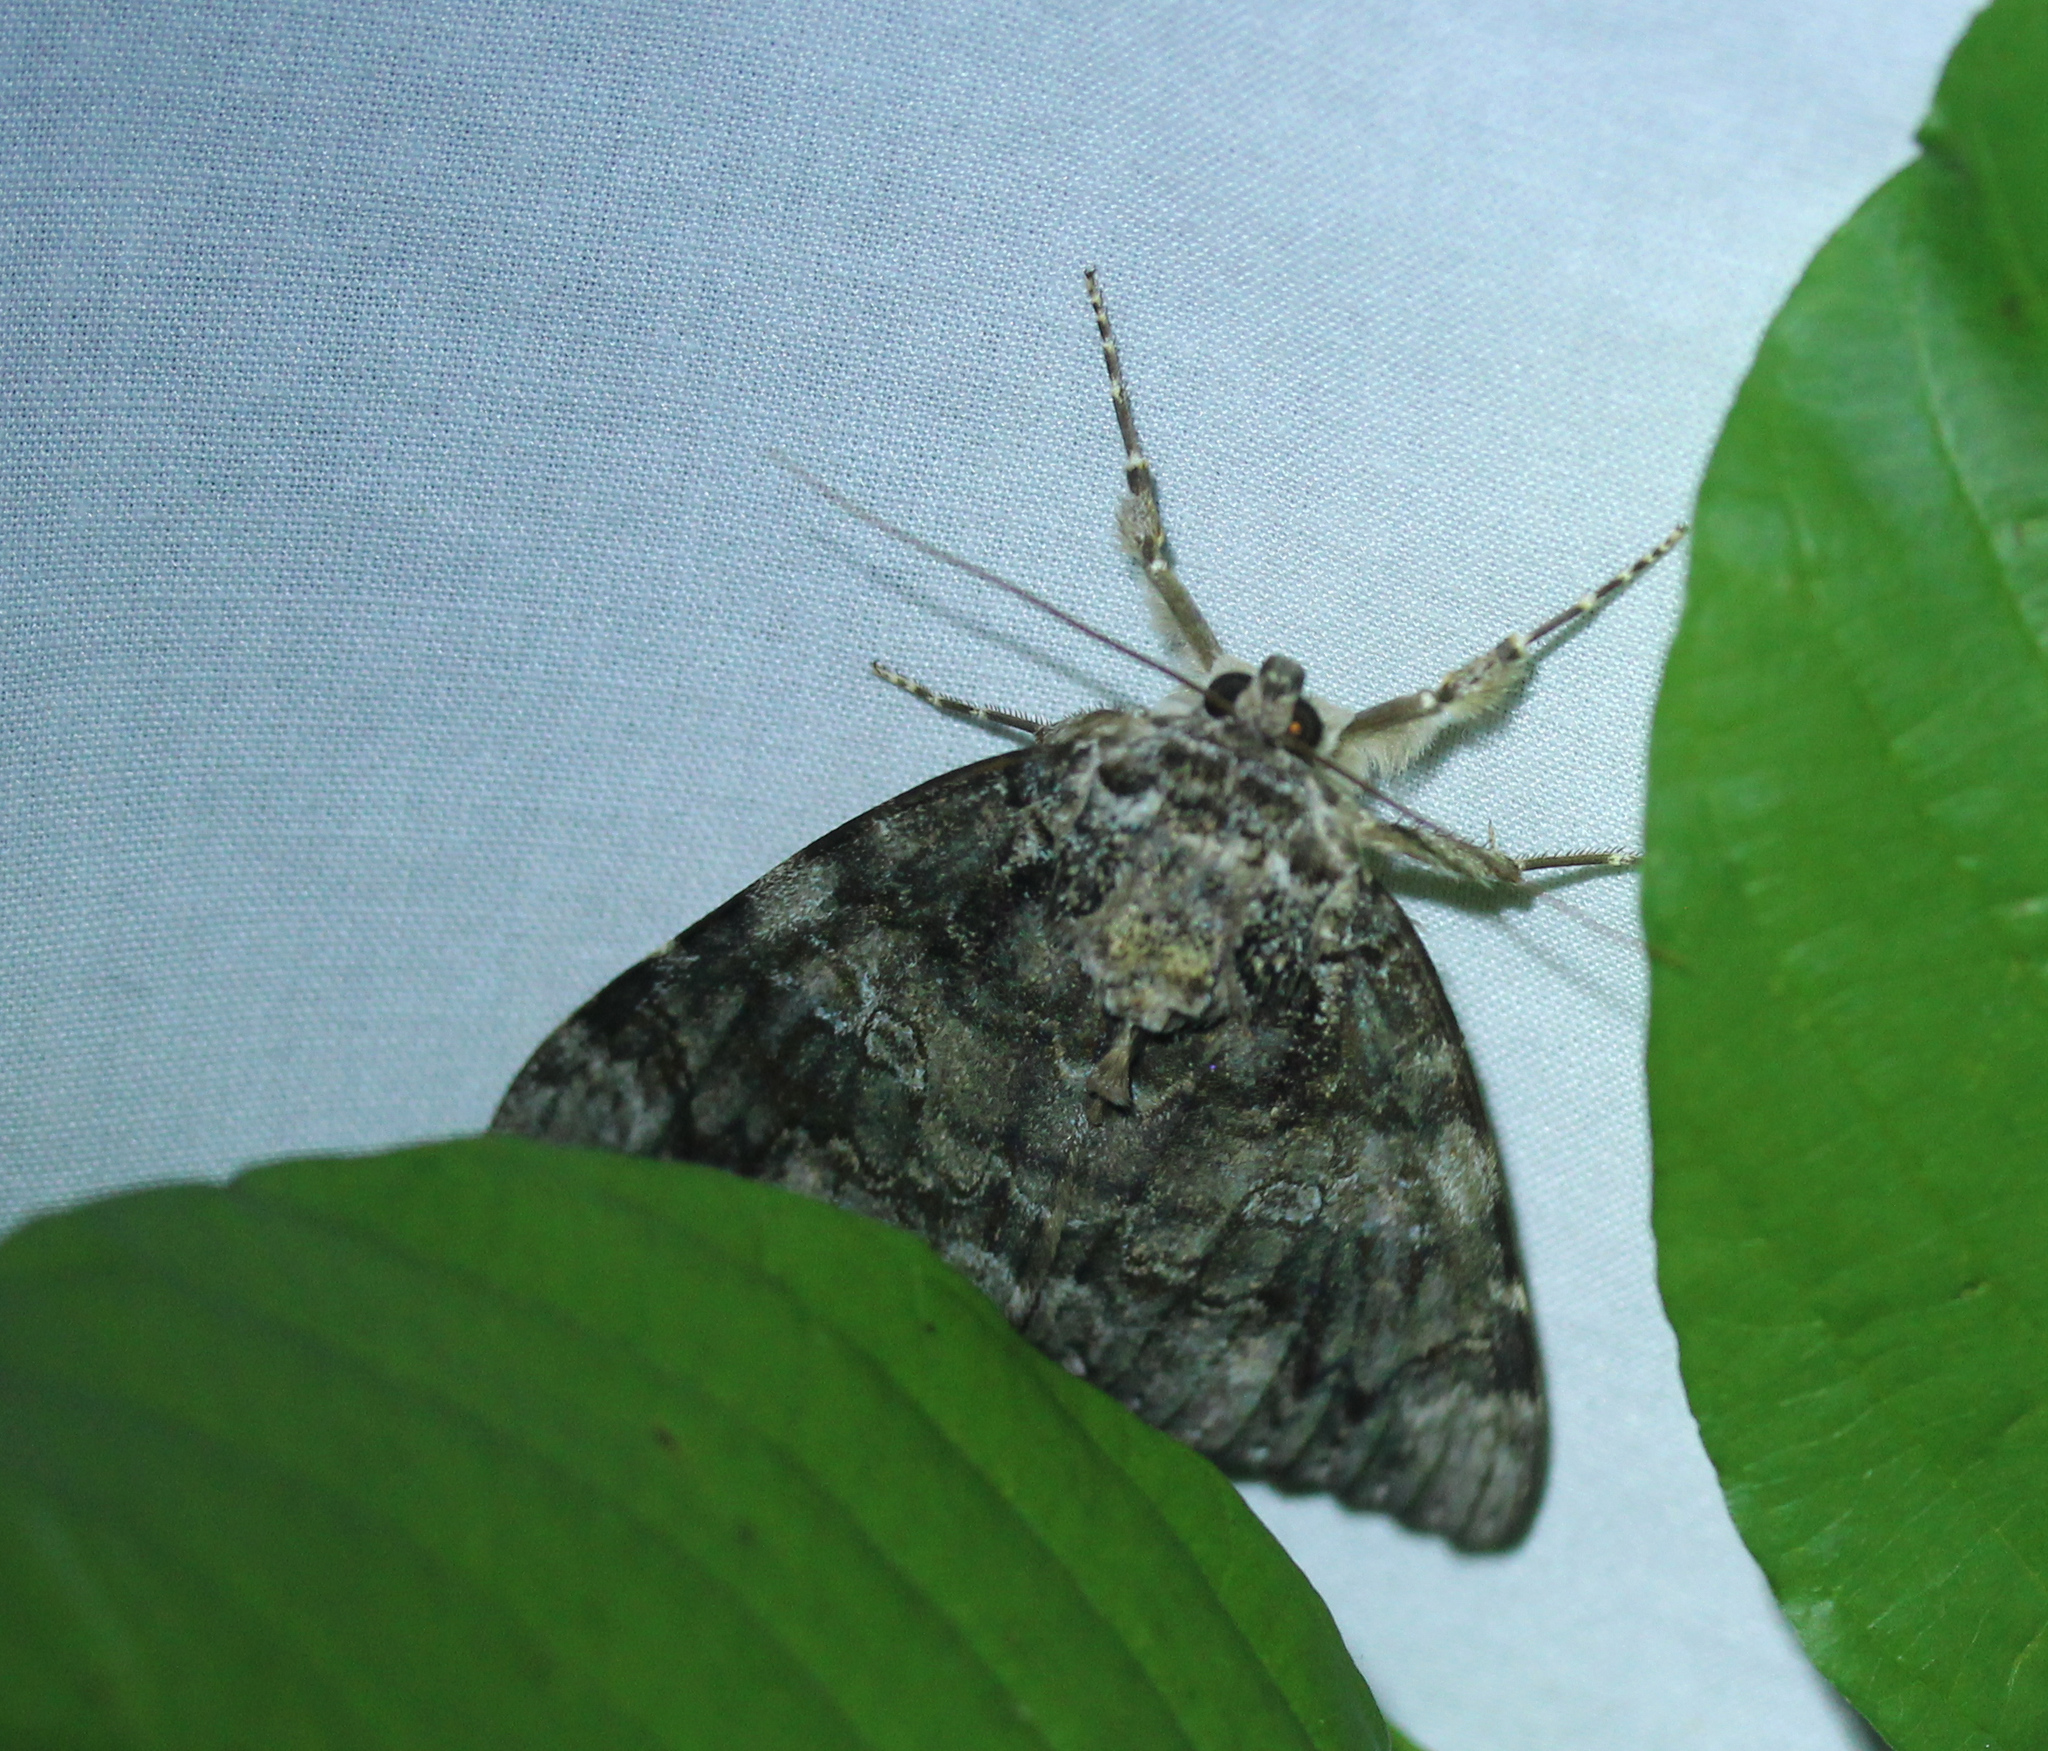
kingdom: Animalia
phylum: Arthropoda
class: Insecta
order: Lepidoptera
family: Erebidae
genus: Catocala
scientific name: Catocala ilia
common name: Ilia underwing
